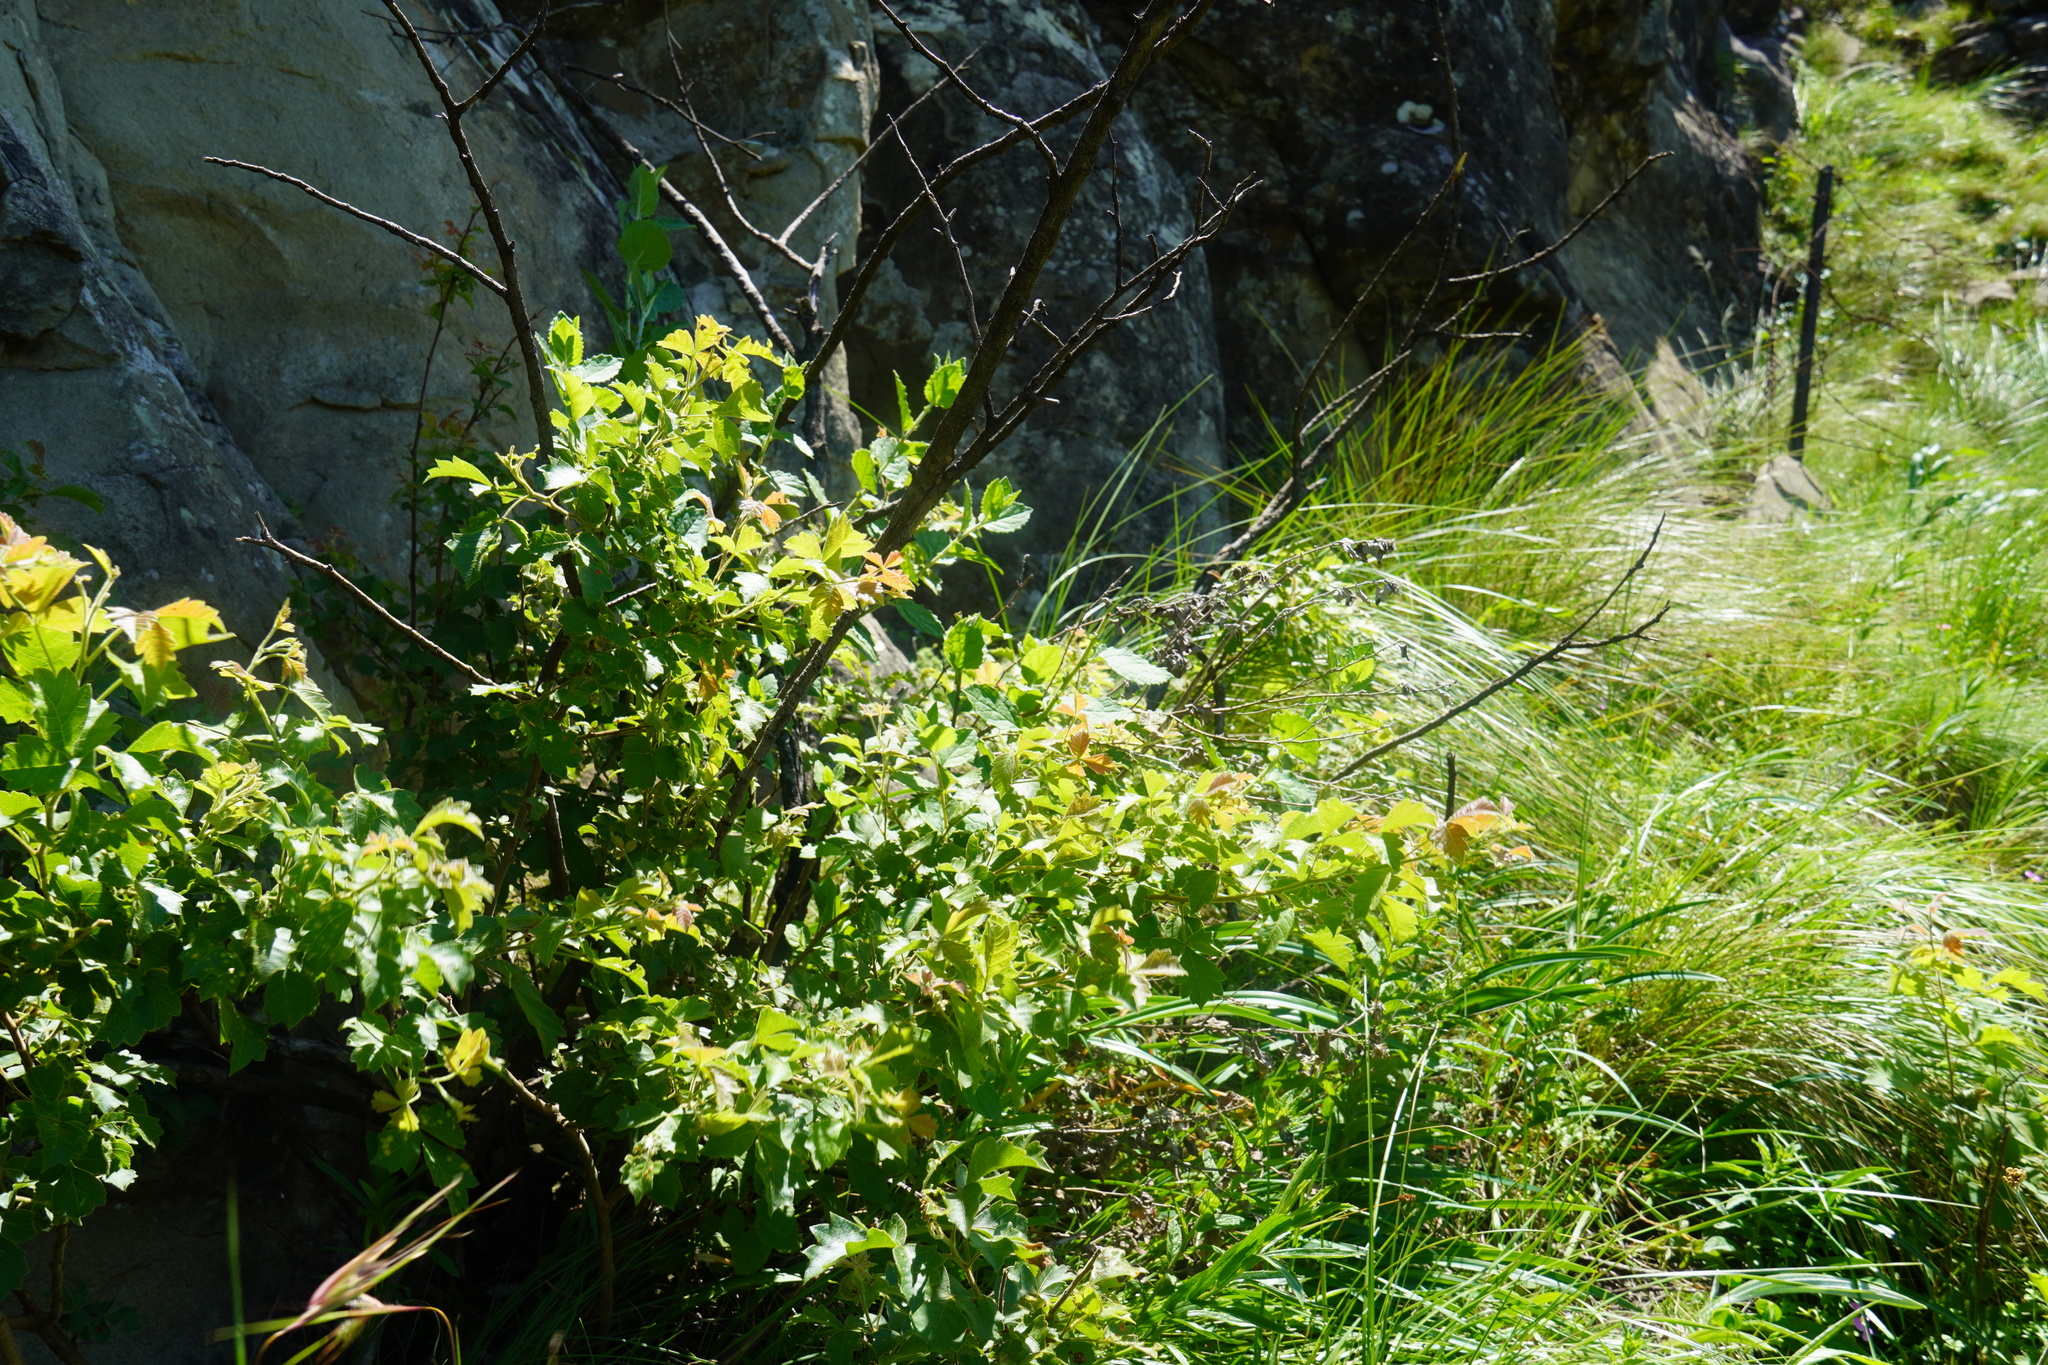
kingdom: Plantae
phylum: Tracheophyta
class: Magnoliopsida
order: Sapindales
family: Anacardiaceae
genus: Searsia
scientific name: Searsia dentata
